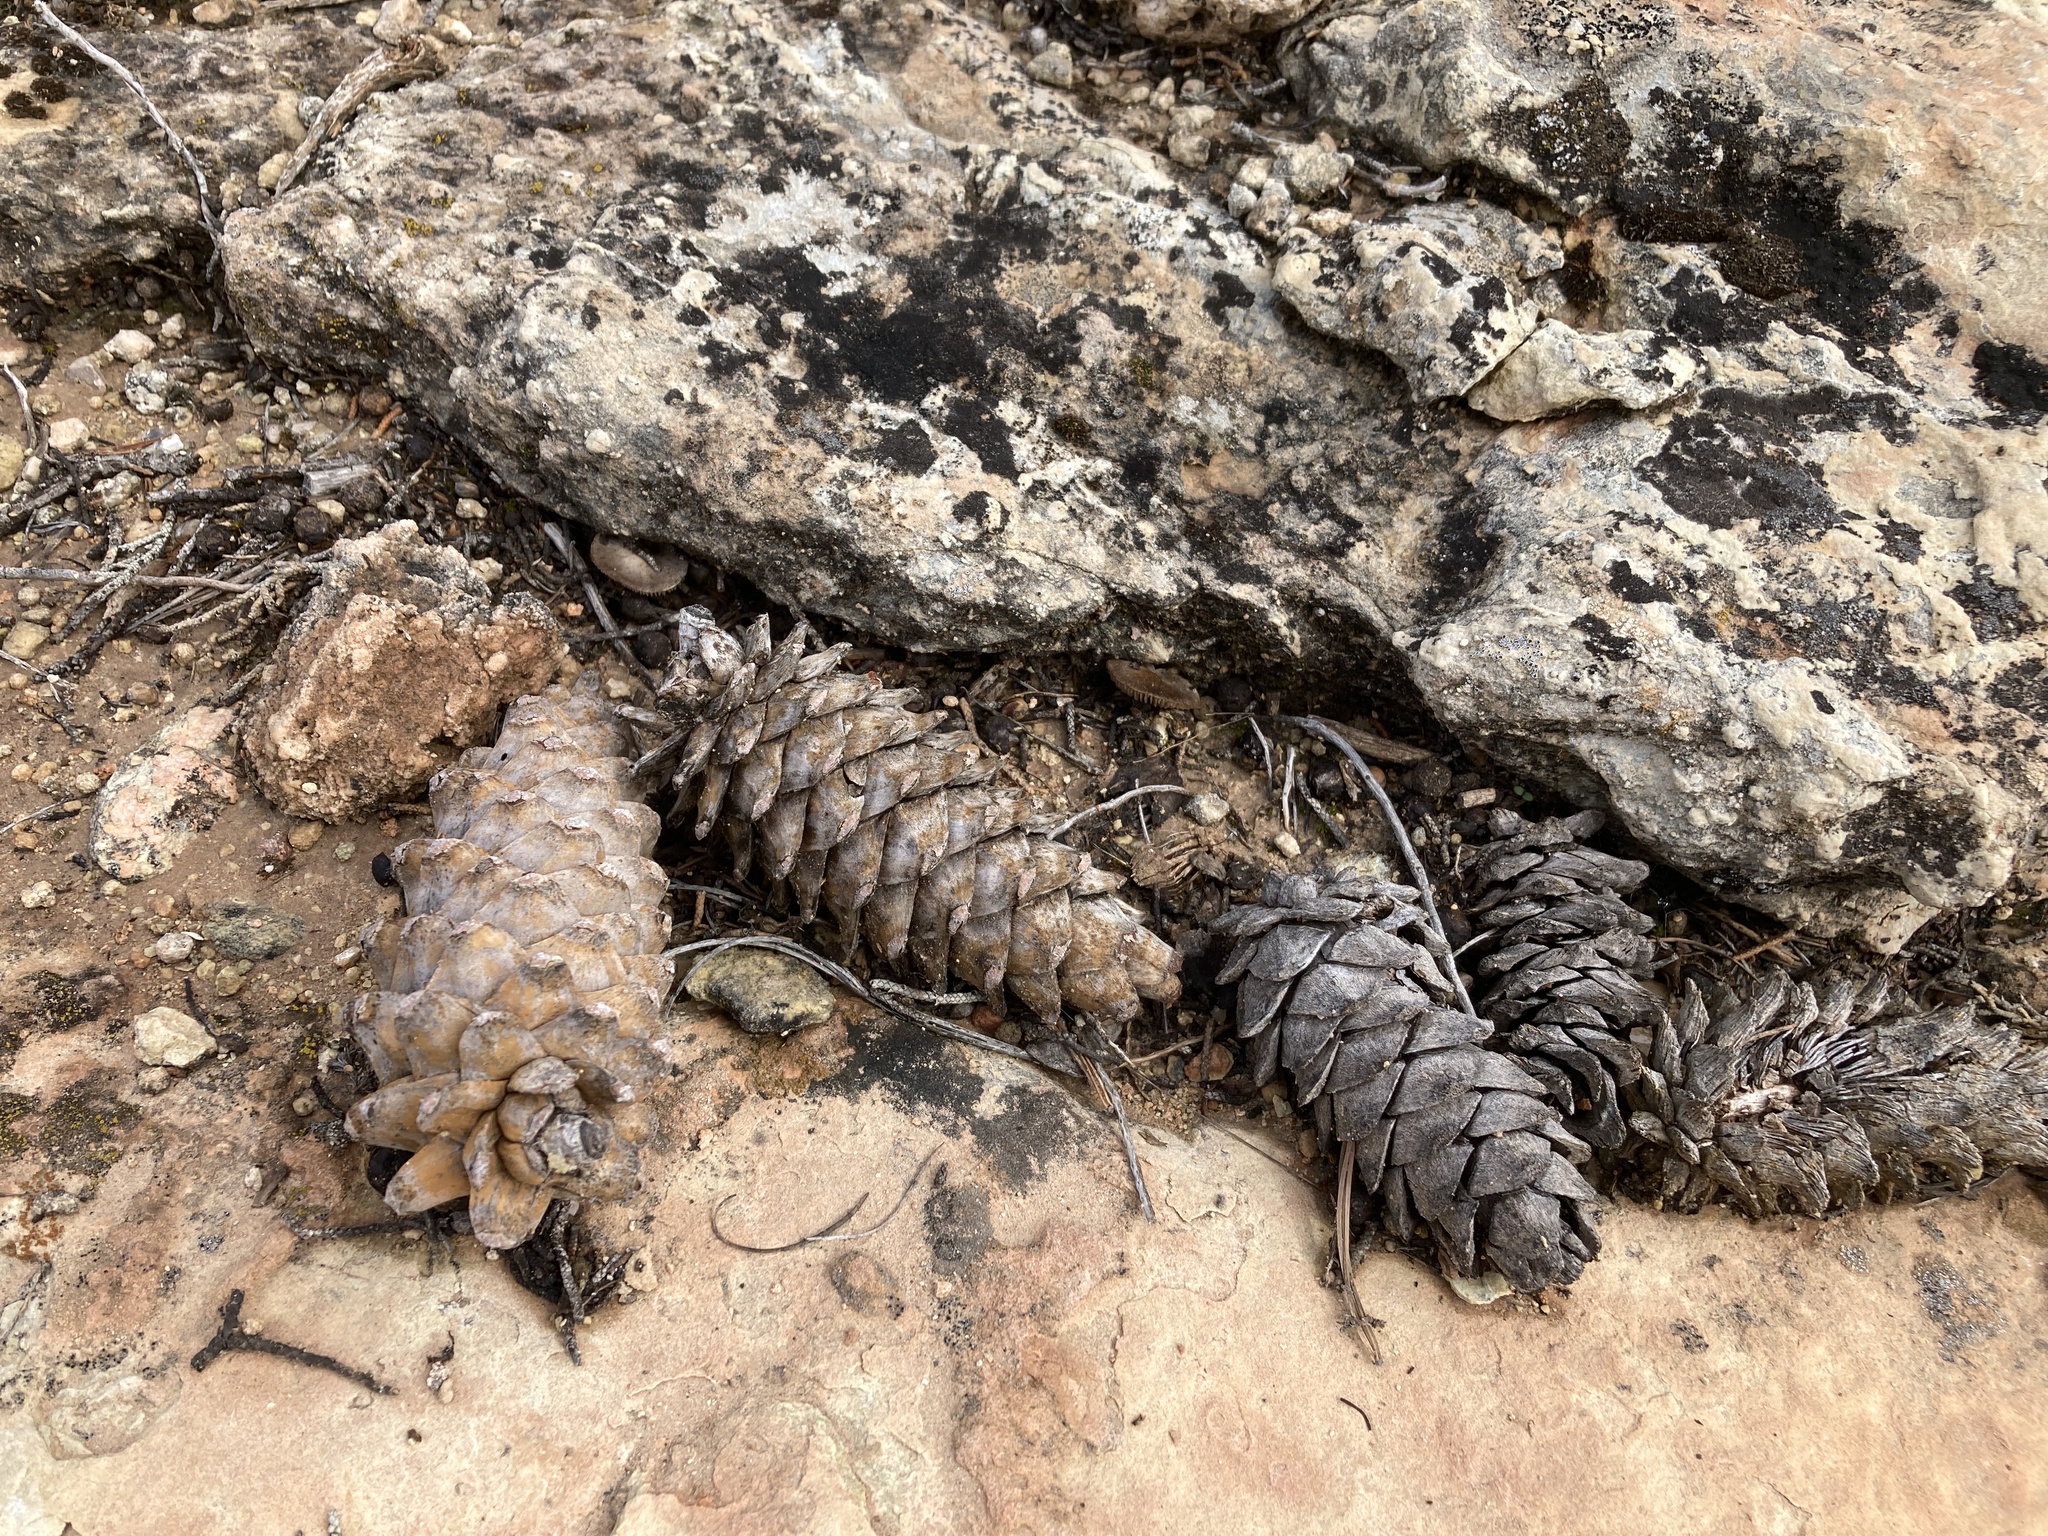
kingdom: Plantae
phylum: Tracheophyta
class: Pinopsida
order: Pinales
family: Pinaceae
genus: Pinus
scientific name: Pinus flexilis
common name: Limber pine
